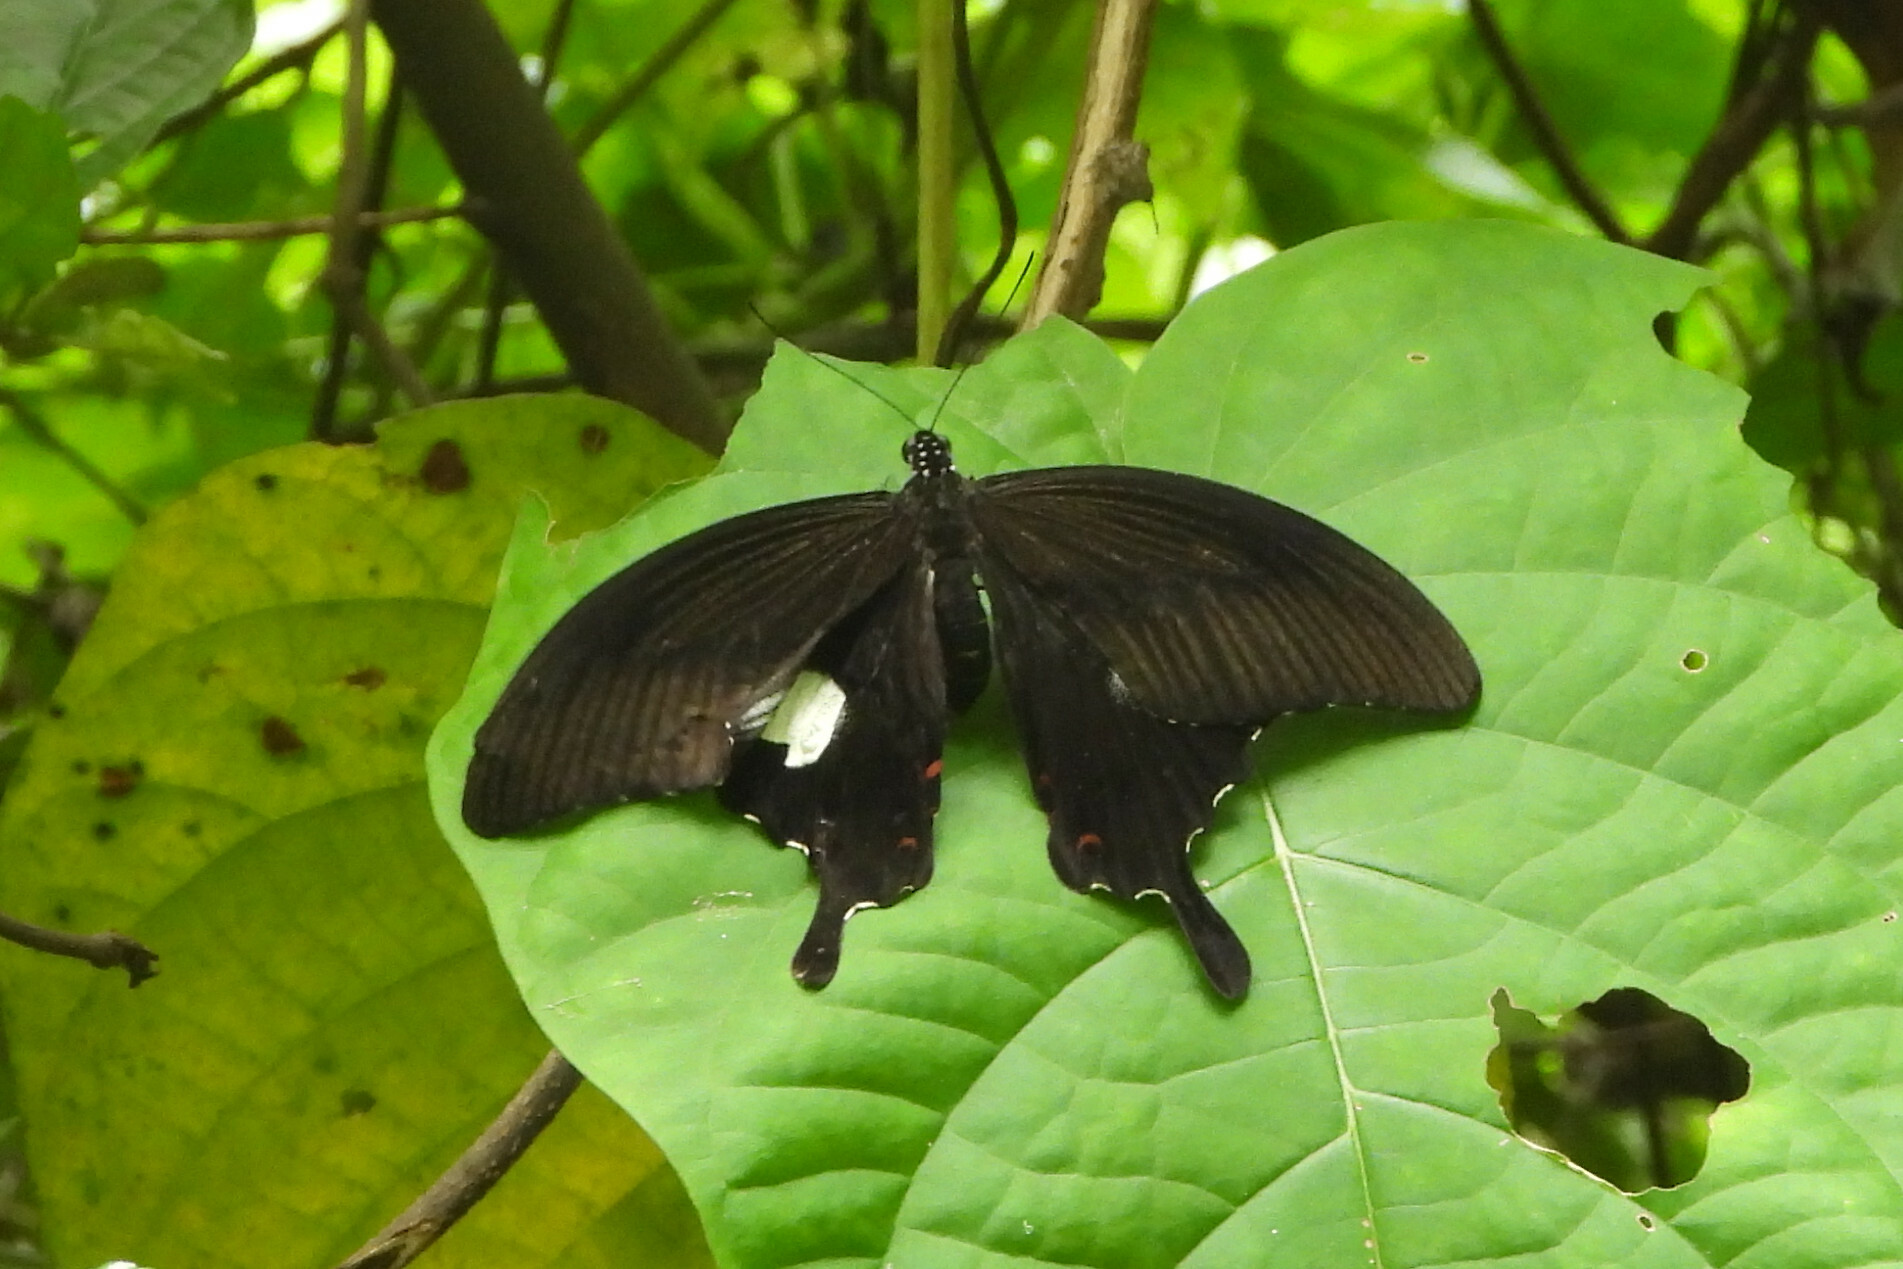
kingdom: Animalia
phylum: Arthropoda
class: Insecta
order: Lepidoptera
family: Papilionidae
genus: Papilio
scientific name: Papilio helenus
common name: Red helen
